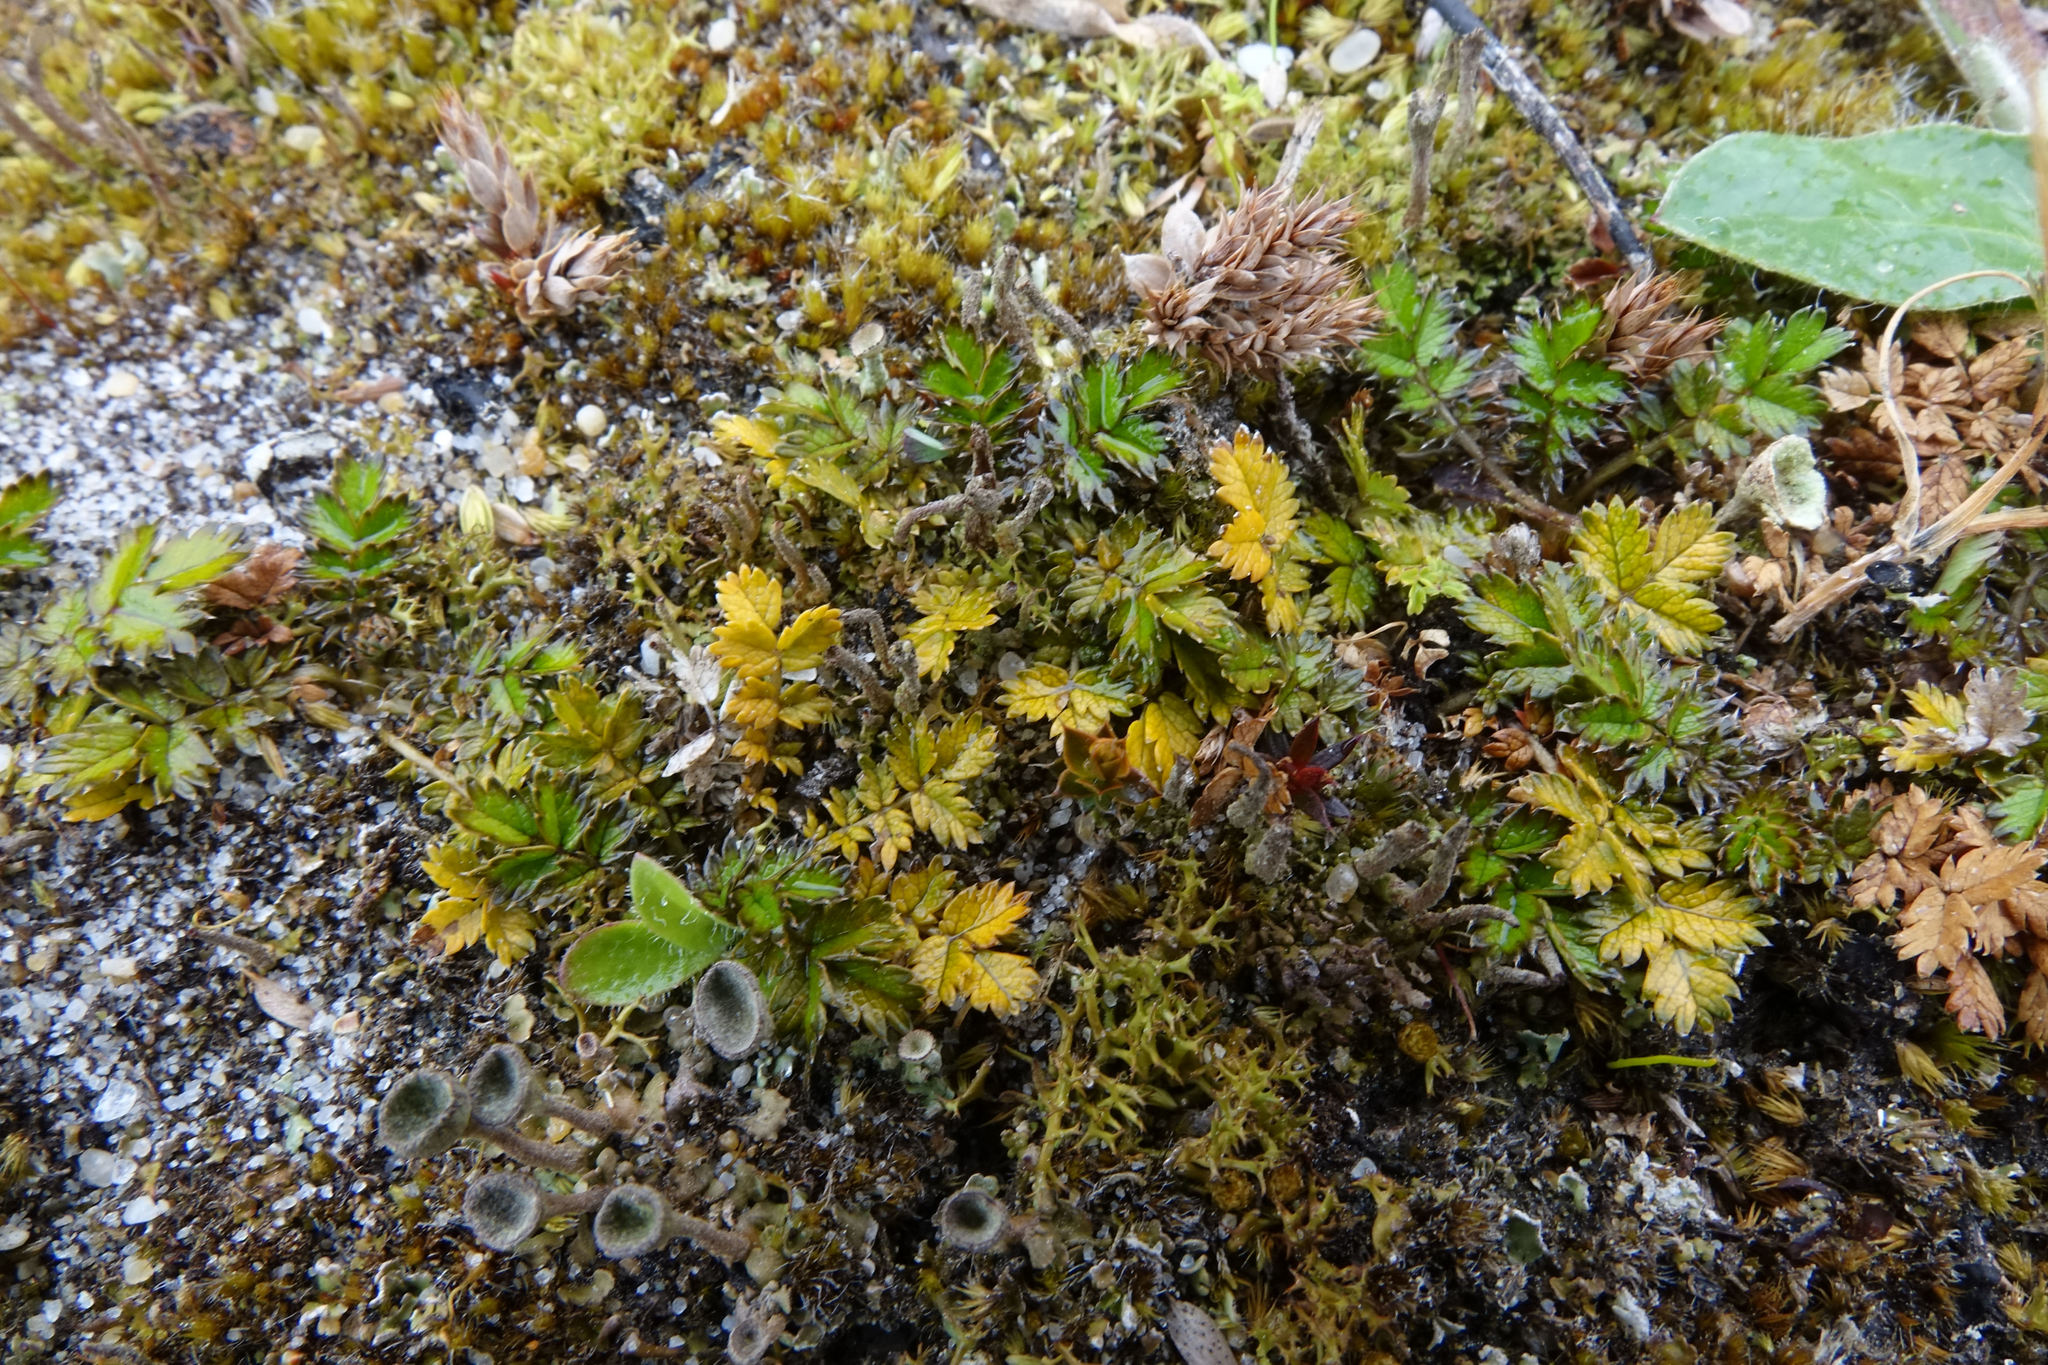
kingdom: Plantae
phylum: Tracheophyta
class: Magnoliopsida
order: Rosales
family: Rosaceae
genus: Acaena
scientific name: Acaena microphylla
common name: New zealand-bur
